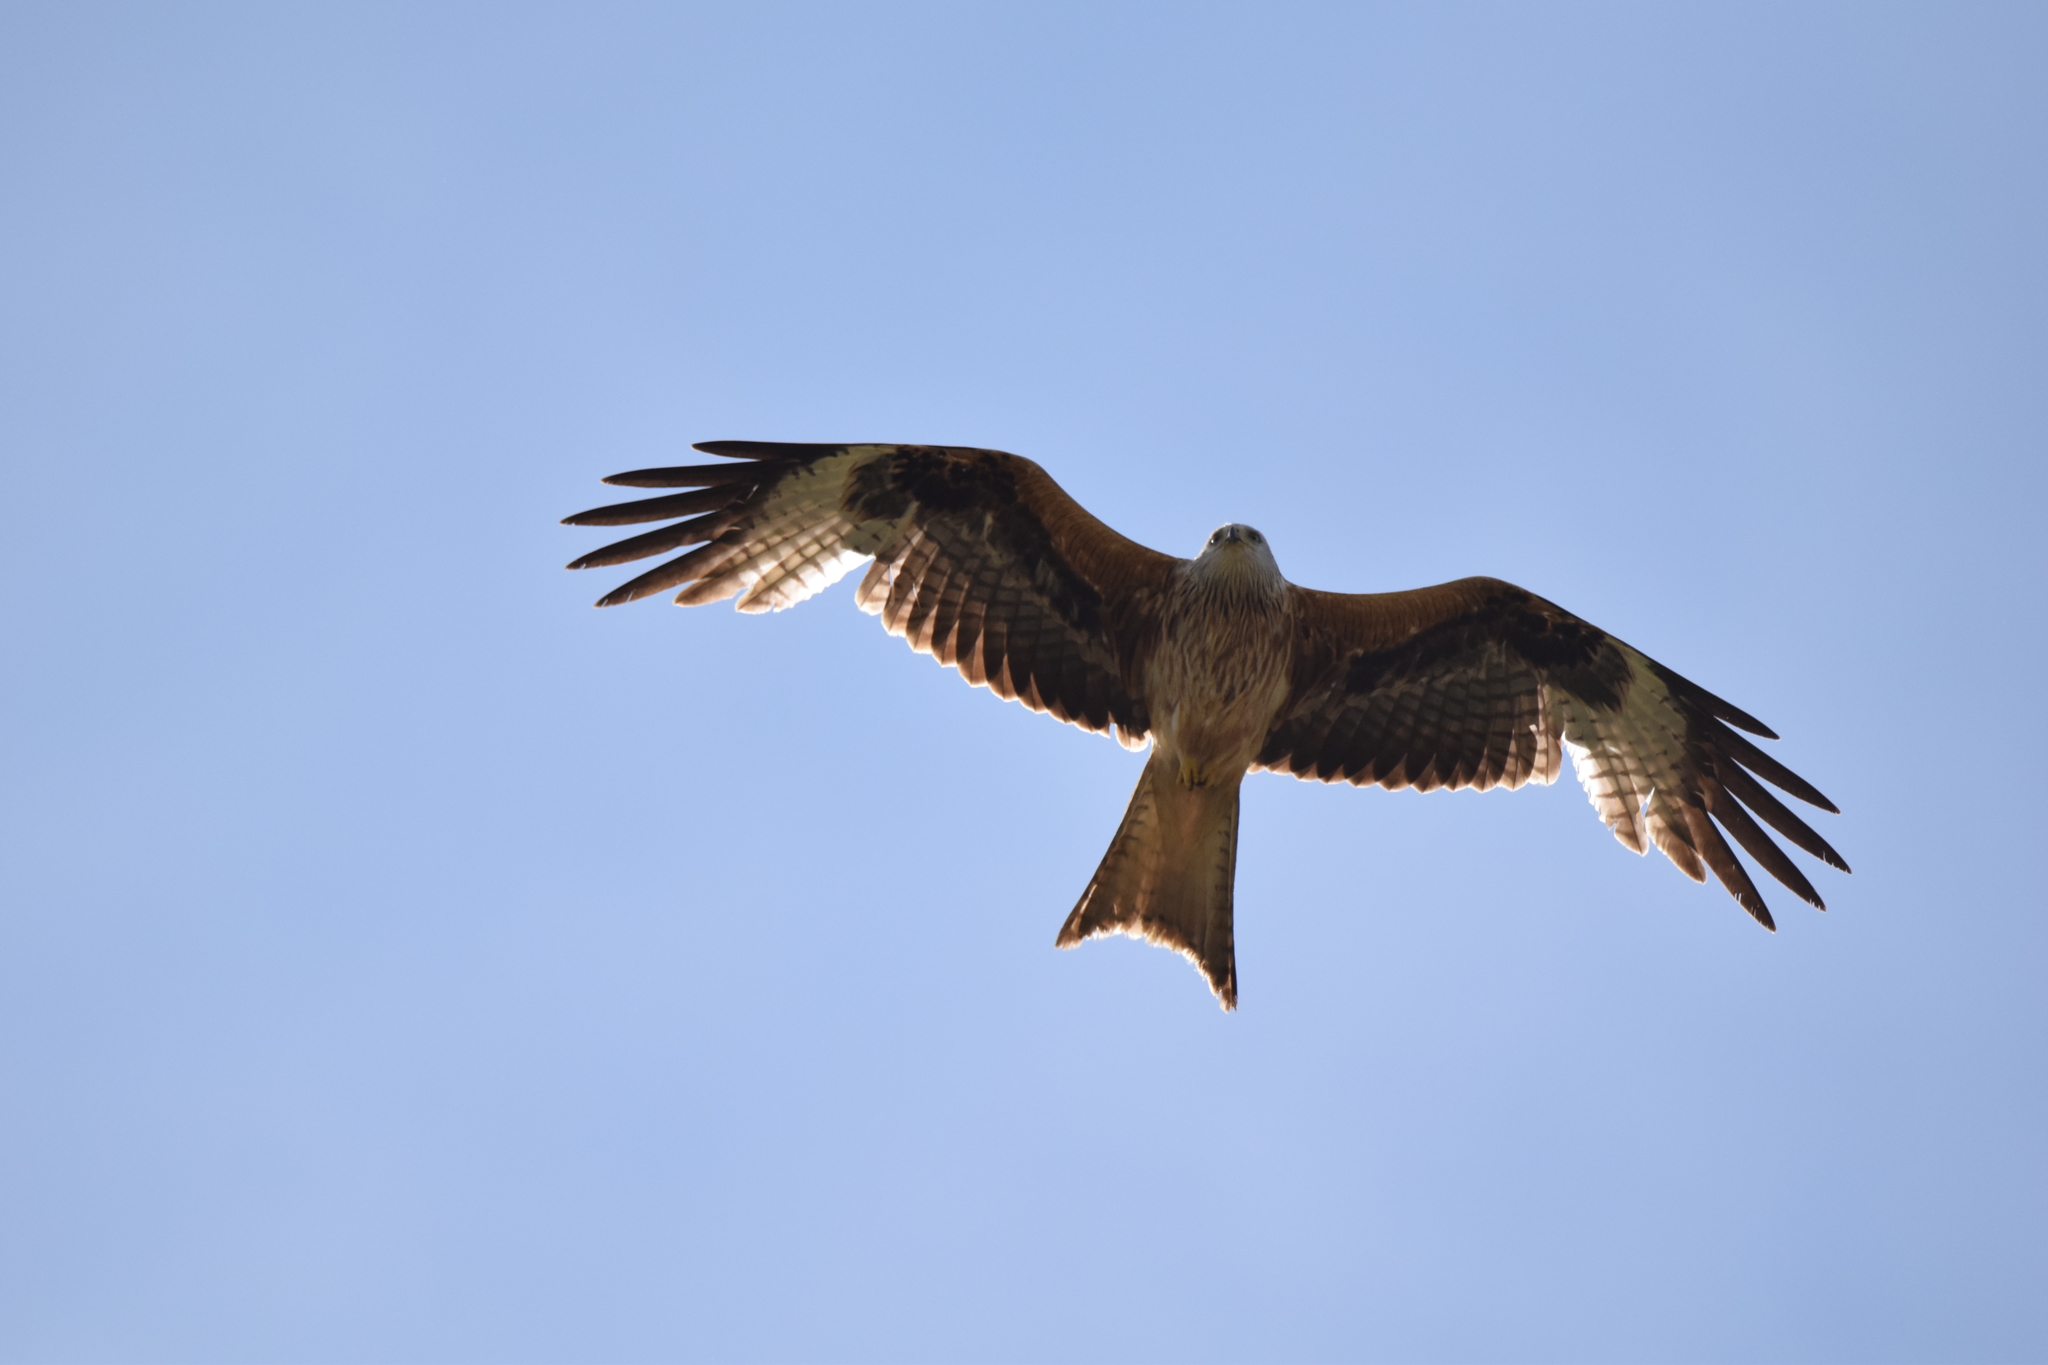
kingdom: Animalia
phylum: Chordata
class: Aves
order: Accipitriformes
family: Accipitridae
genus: Milvus
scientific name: Milvus milvus
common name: Red kite
